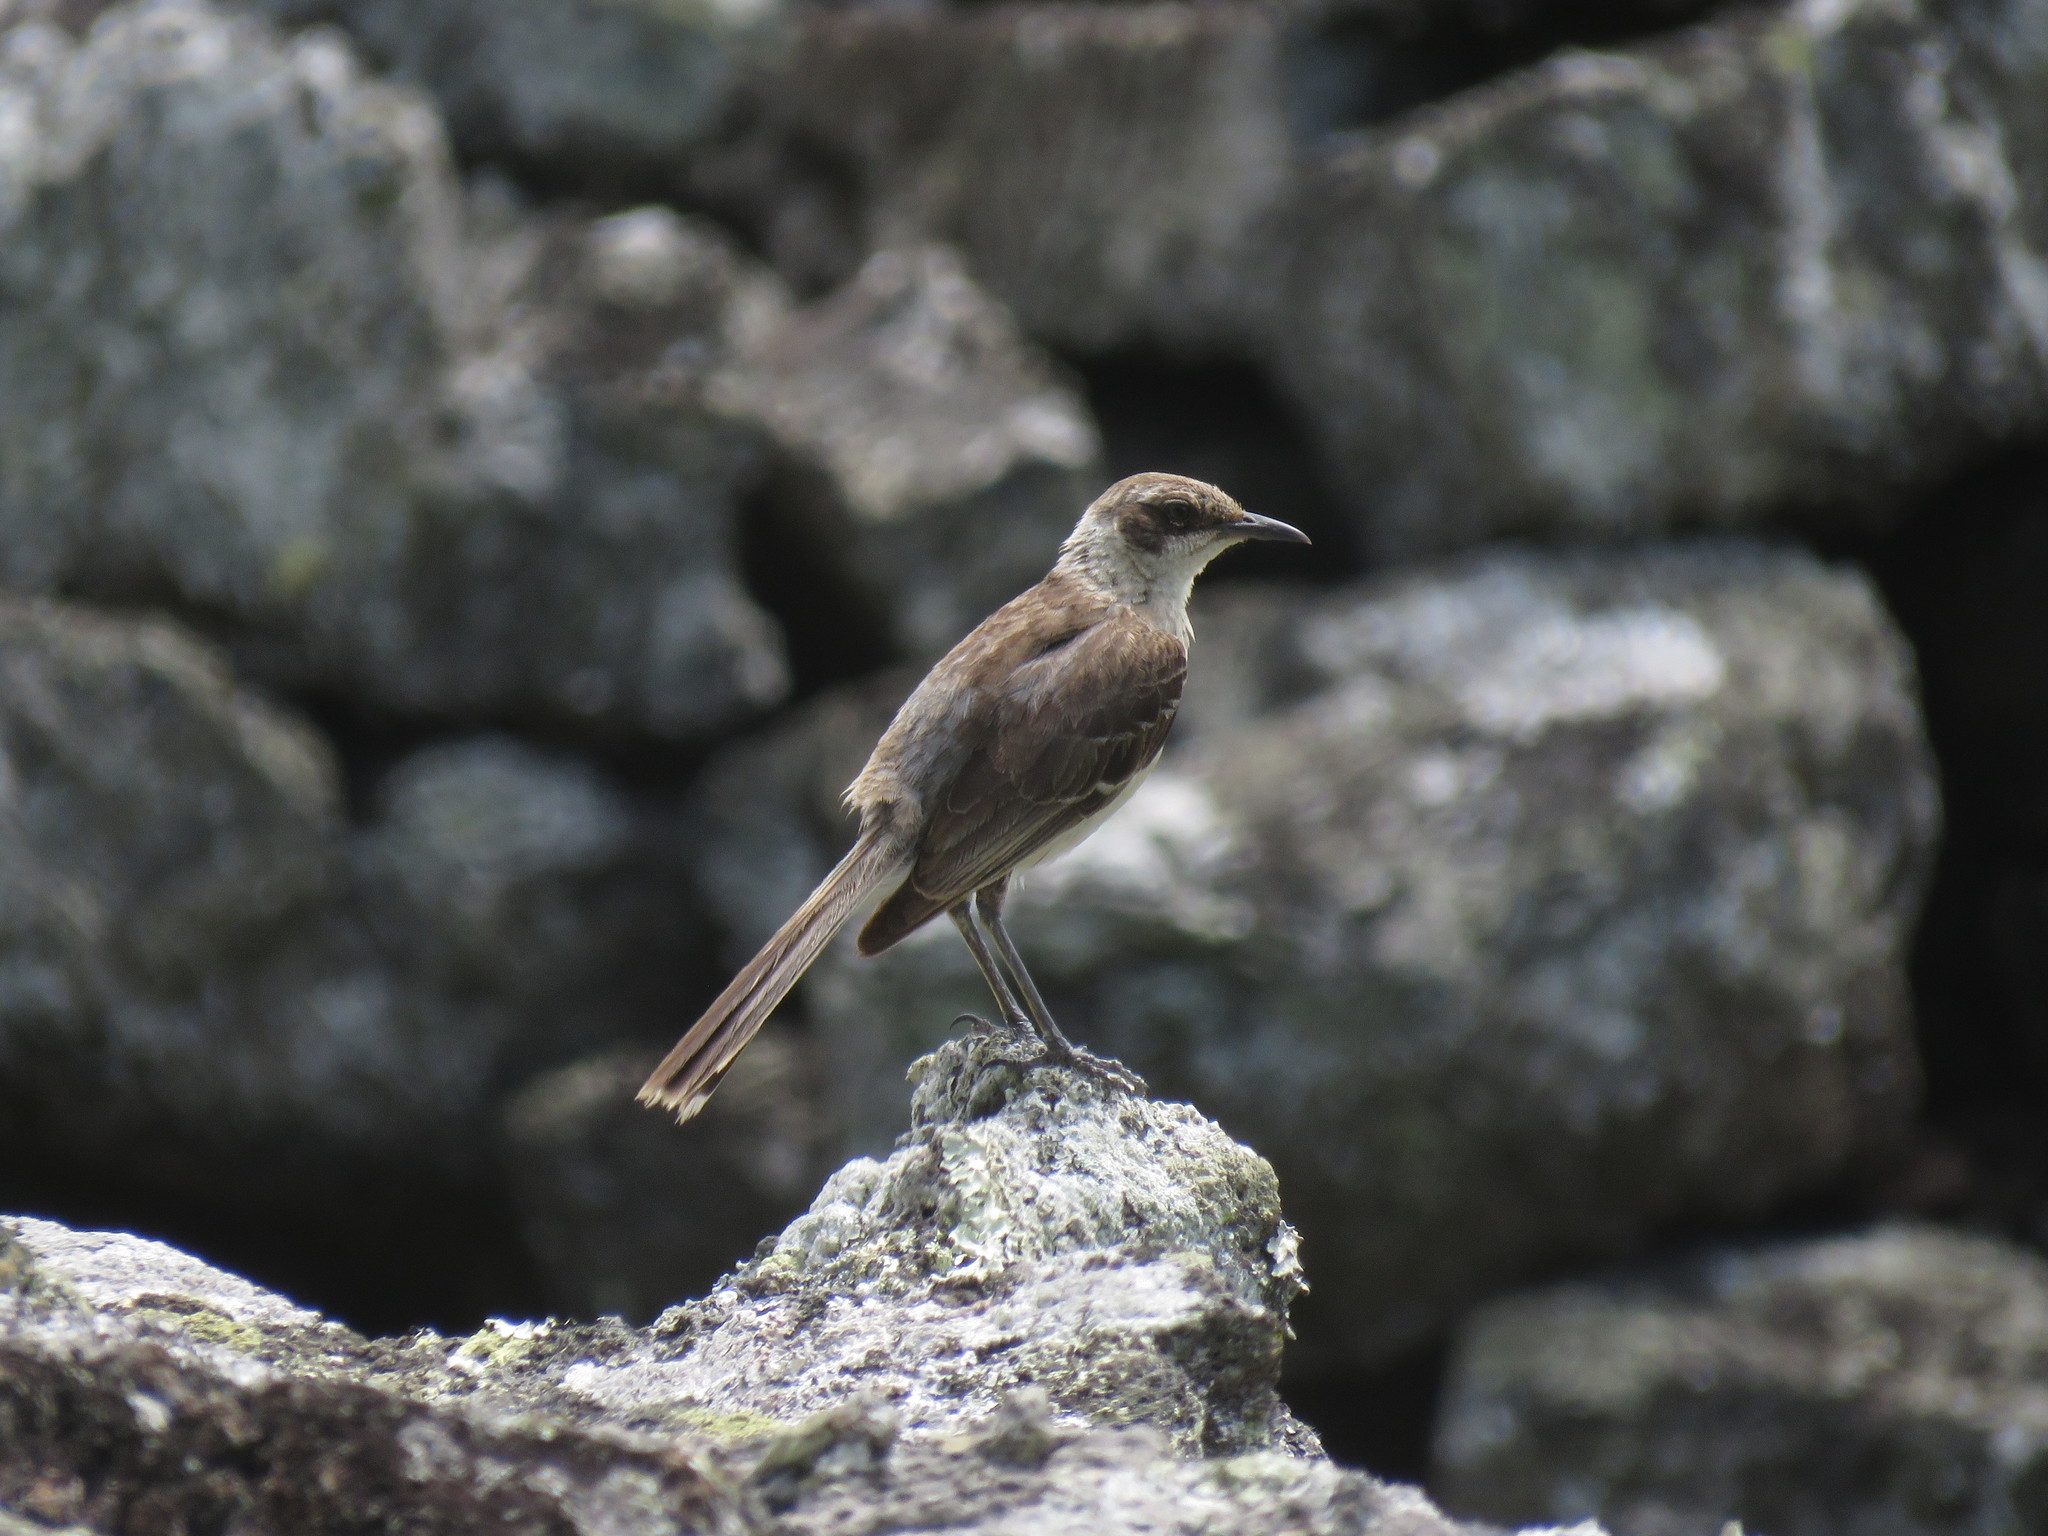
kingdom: Animalia
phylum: Chordata
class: Aves
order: Passeriformes
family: Mimidae
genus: Mimus
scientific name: Mimus parvulus
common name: Galapagos mockingbird
